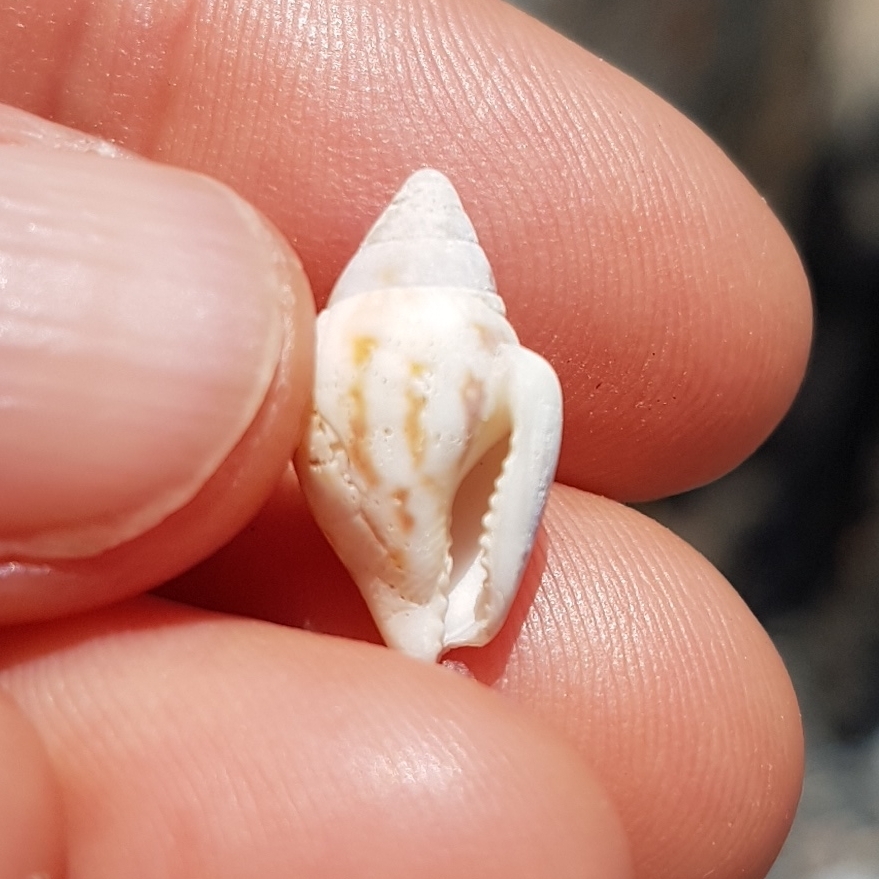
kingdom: Animalia
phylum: Mollusca
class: Gastropoda
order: Neogastropoda
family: Columbellidae
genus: Columbella
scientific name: Columbella rustica
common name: Rustic dove shell
